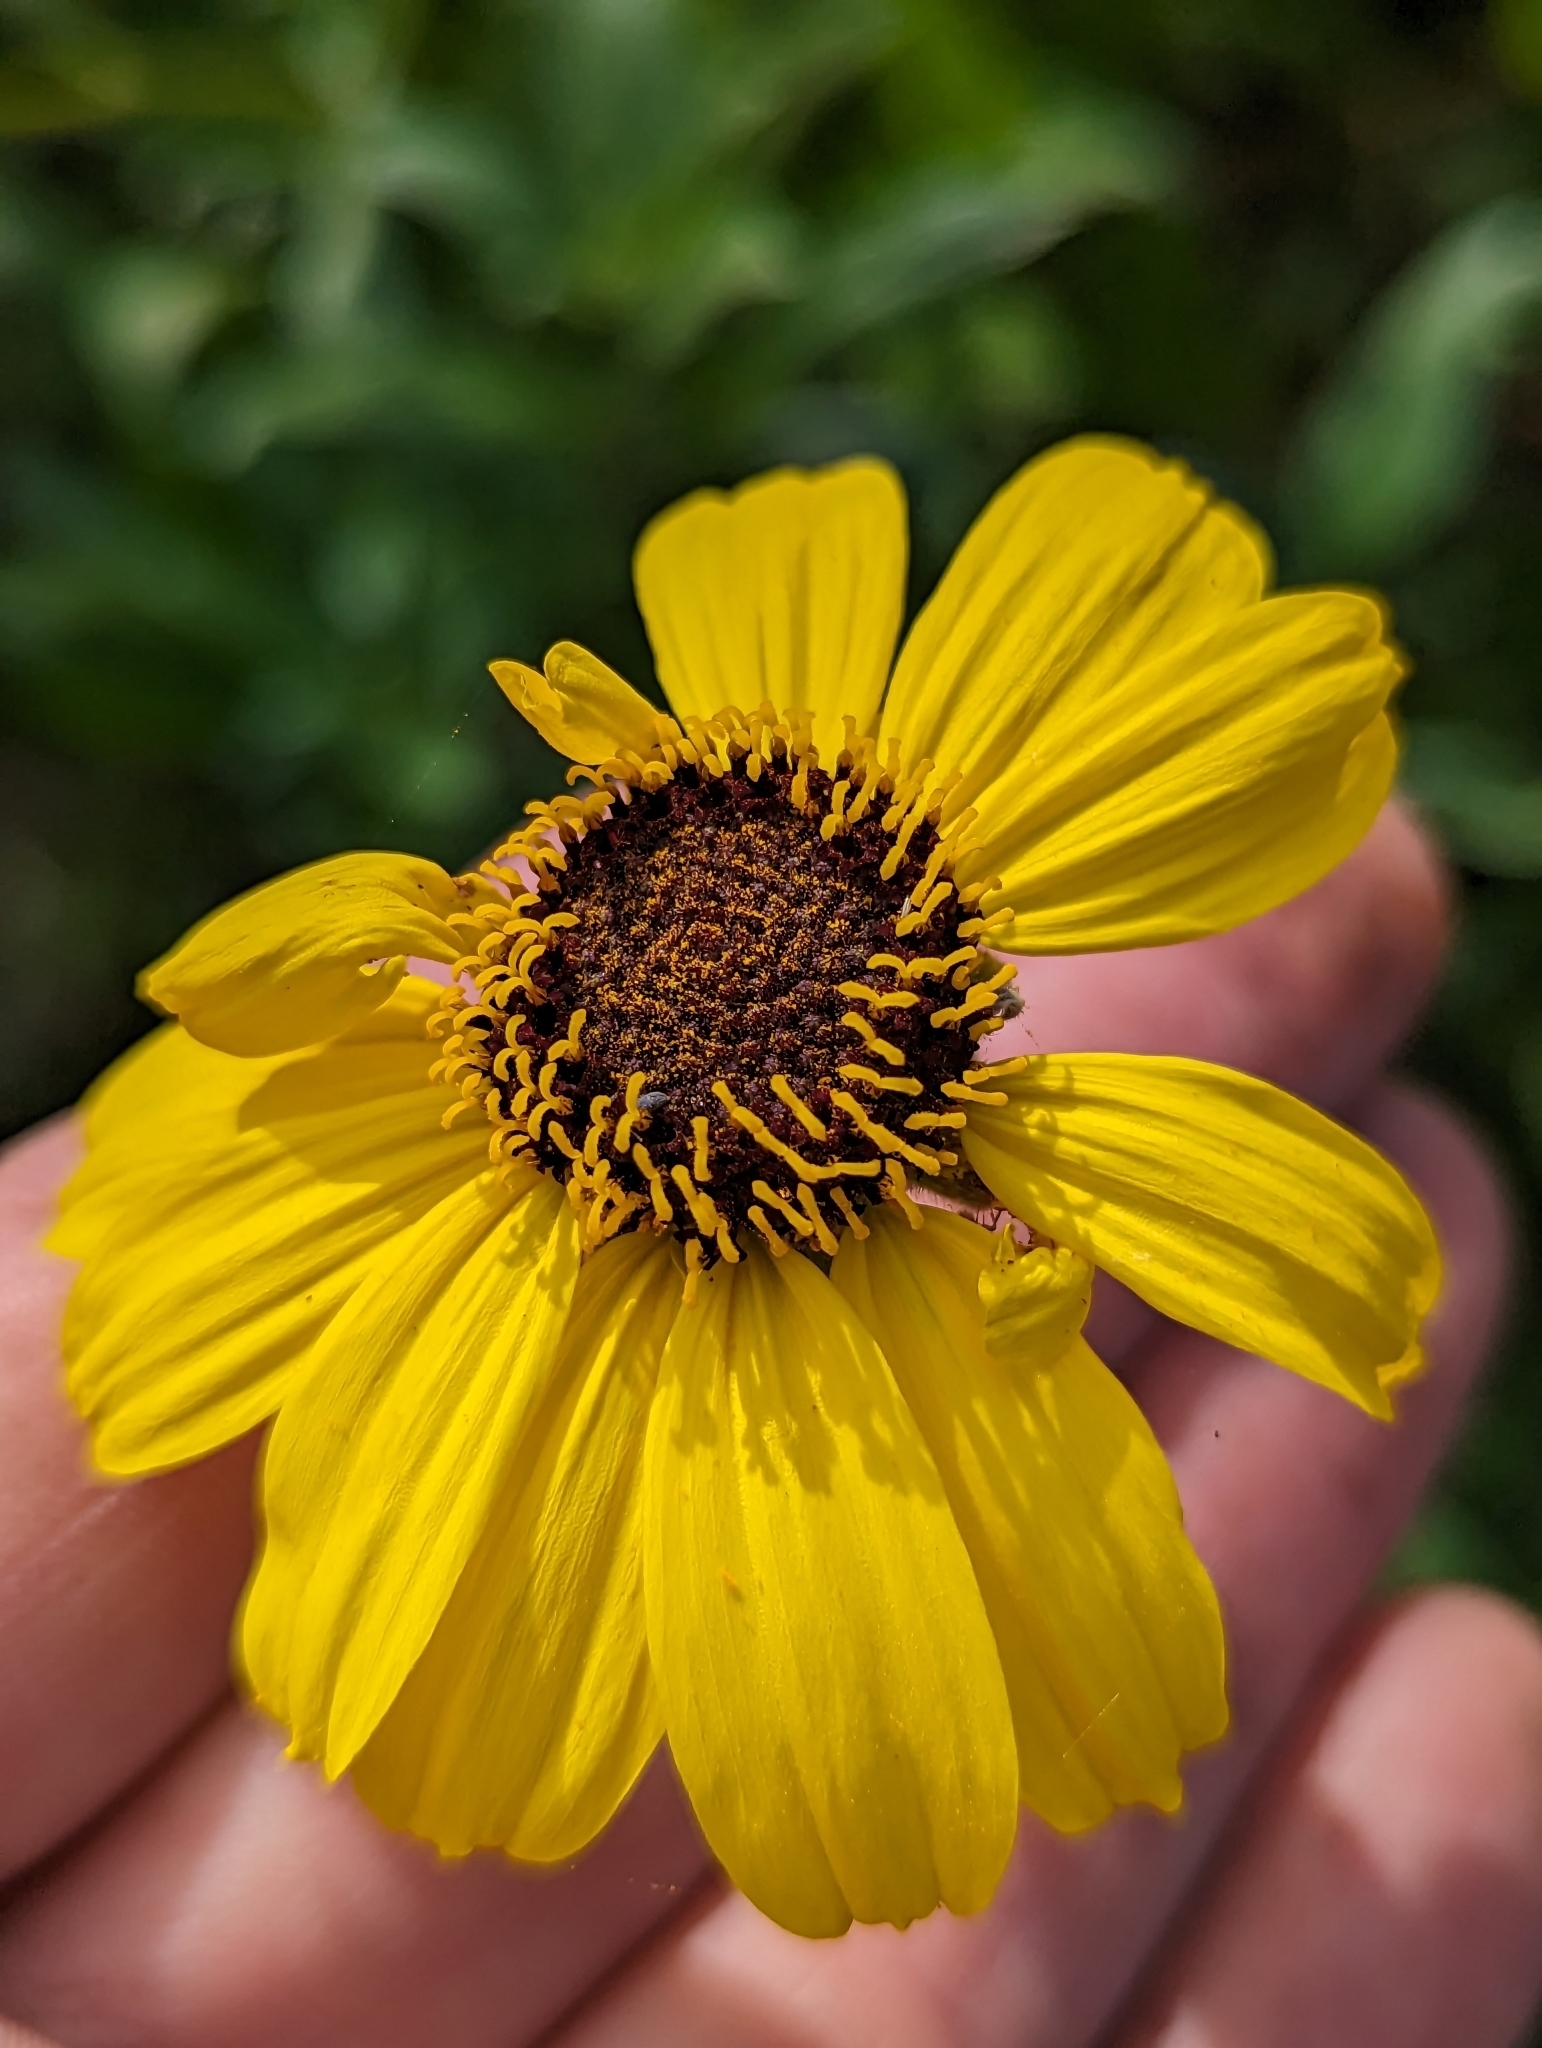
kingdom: Plantae
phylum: Tracheophyta
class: Magnoliopsida
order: Asterales
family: Asteraceae
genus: Encelia
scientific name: Encelia californica
